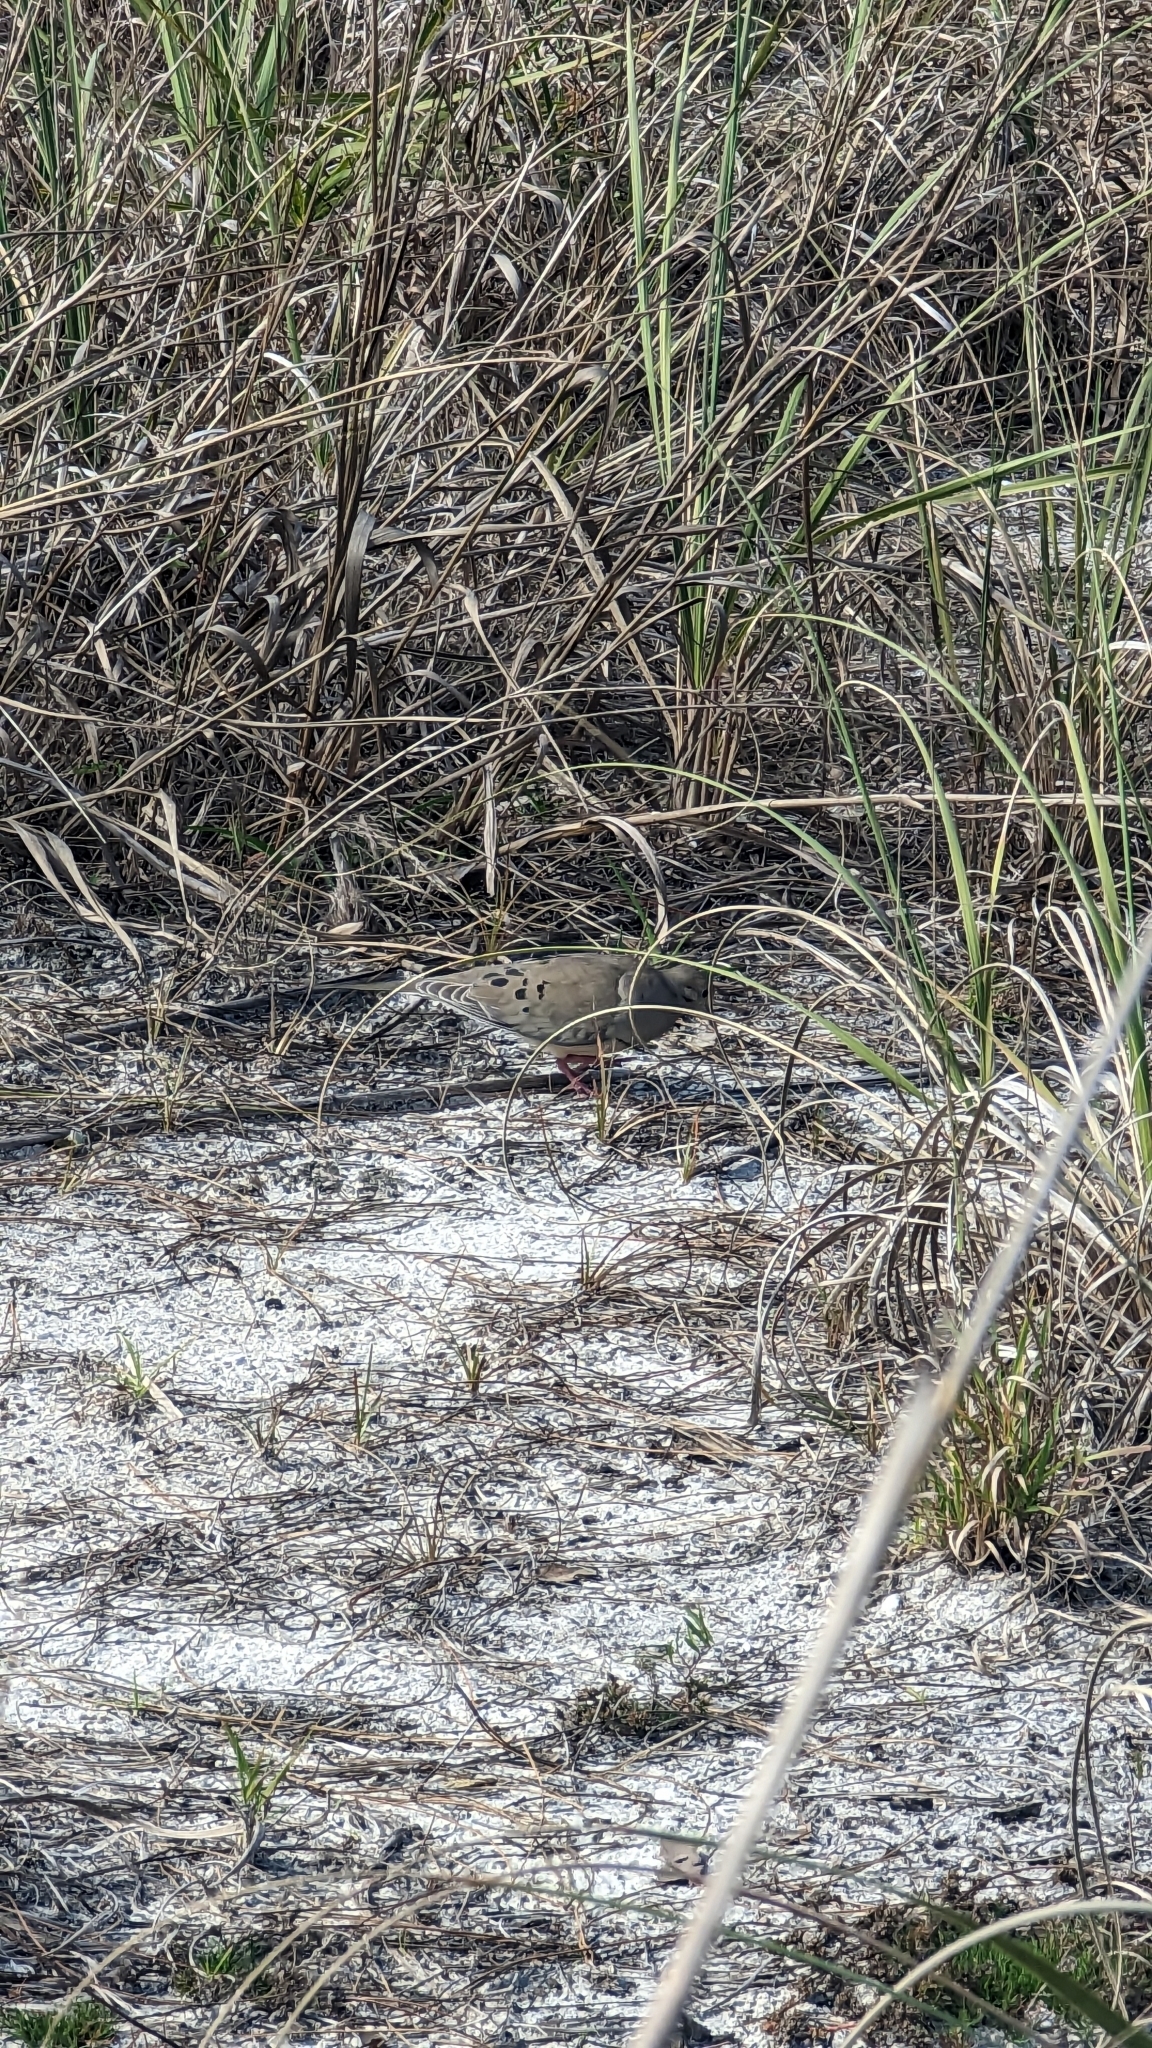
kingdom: Animalia
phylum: Chordata
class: Aves
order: Columbiformes
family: Columbidae
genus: Zenaida
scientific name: Zenaida macroura
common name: Mourning dove
